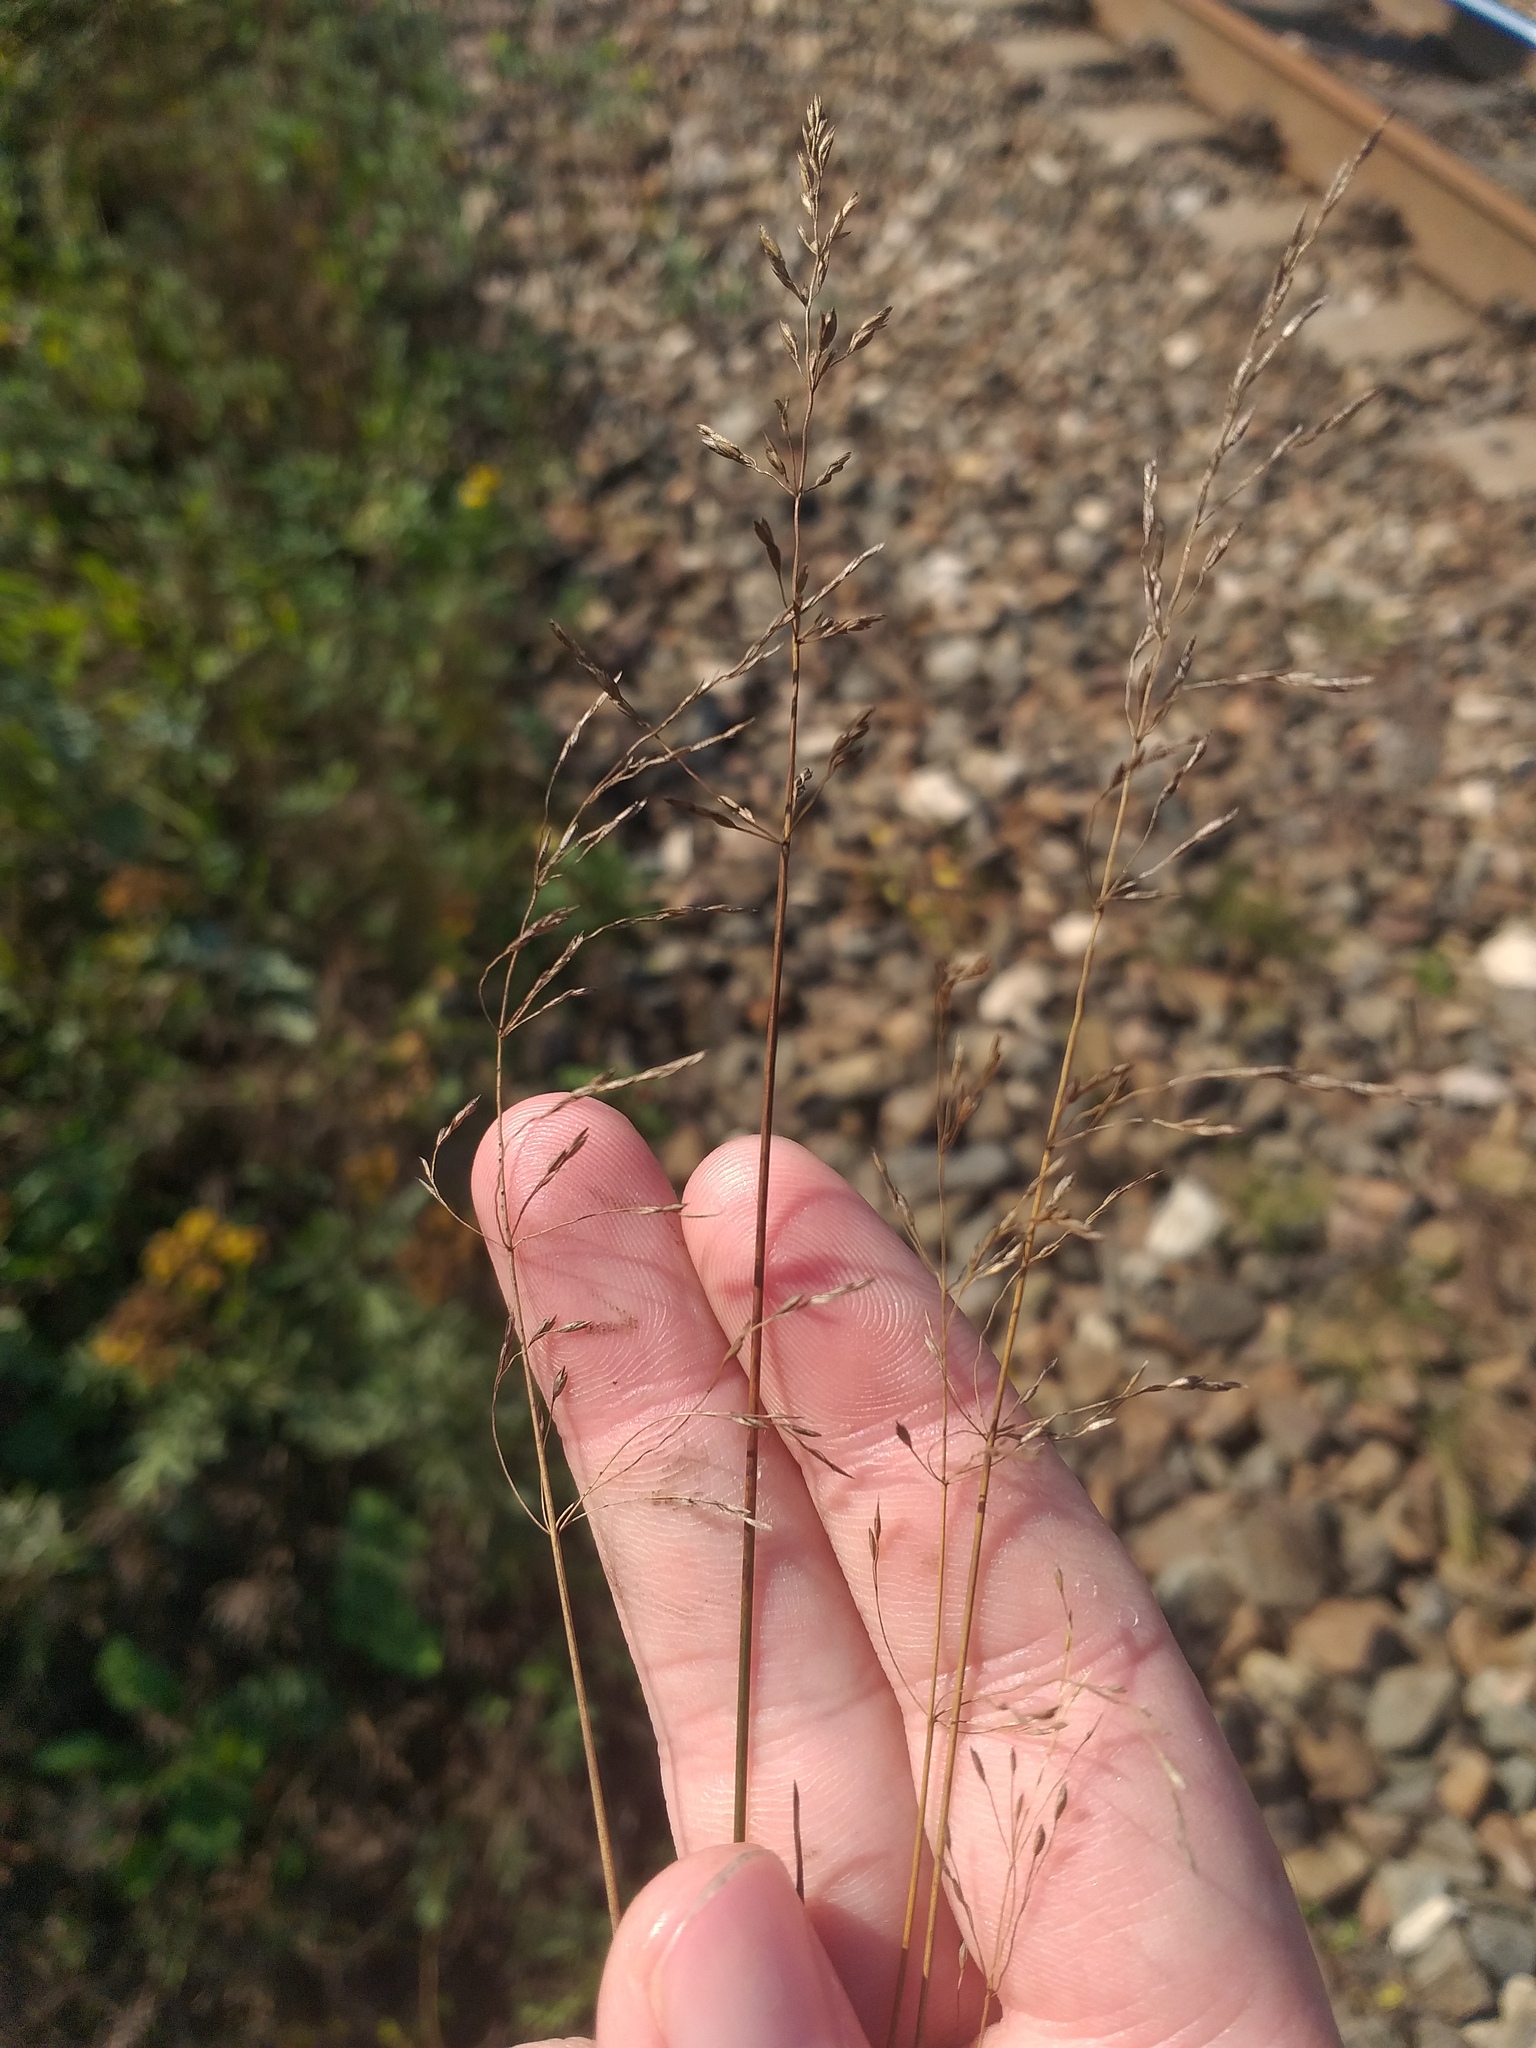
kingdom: Plantae
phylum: Tracheophyta
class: Liliopsida
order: Poales
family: Poaceae
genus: Poa
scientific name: Poa palustris
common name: Swamp meadow-grass
